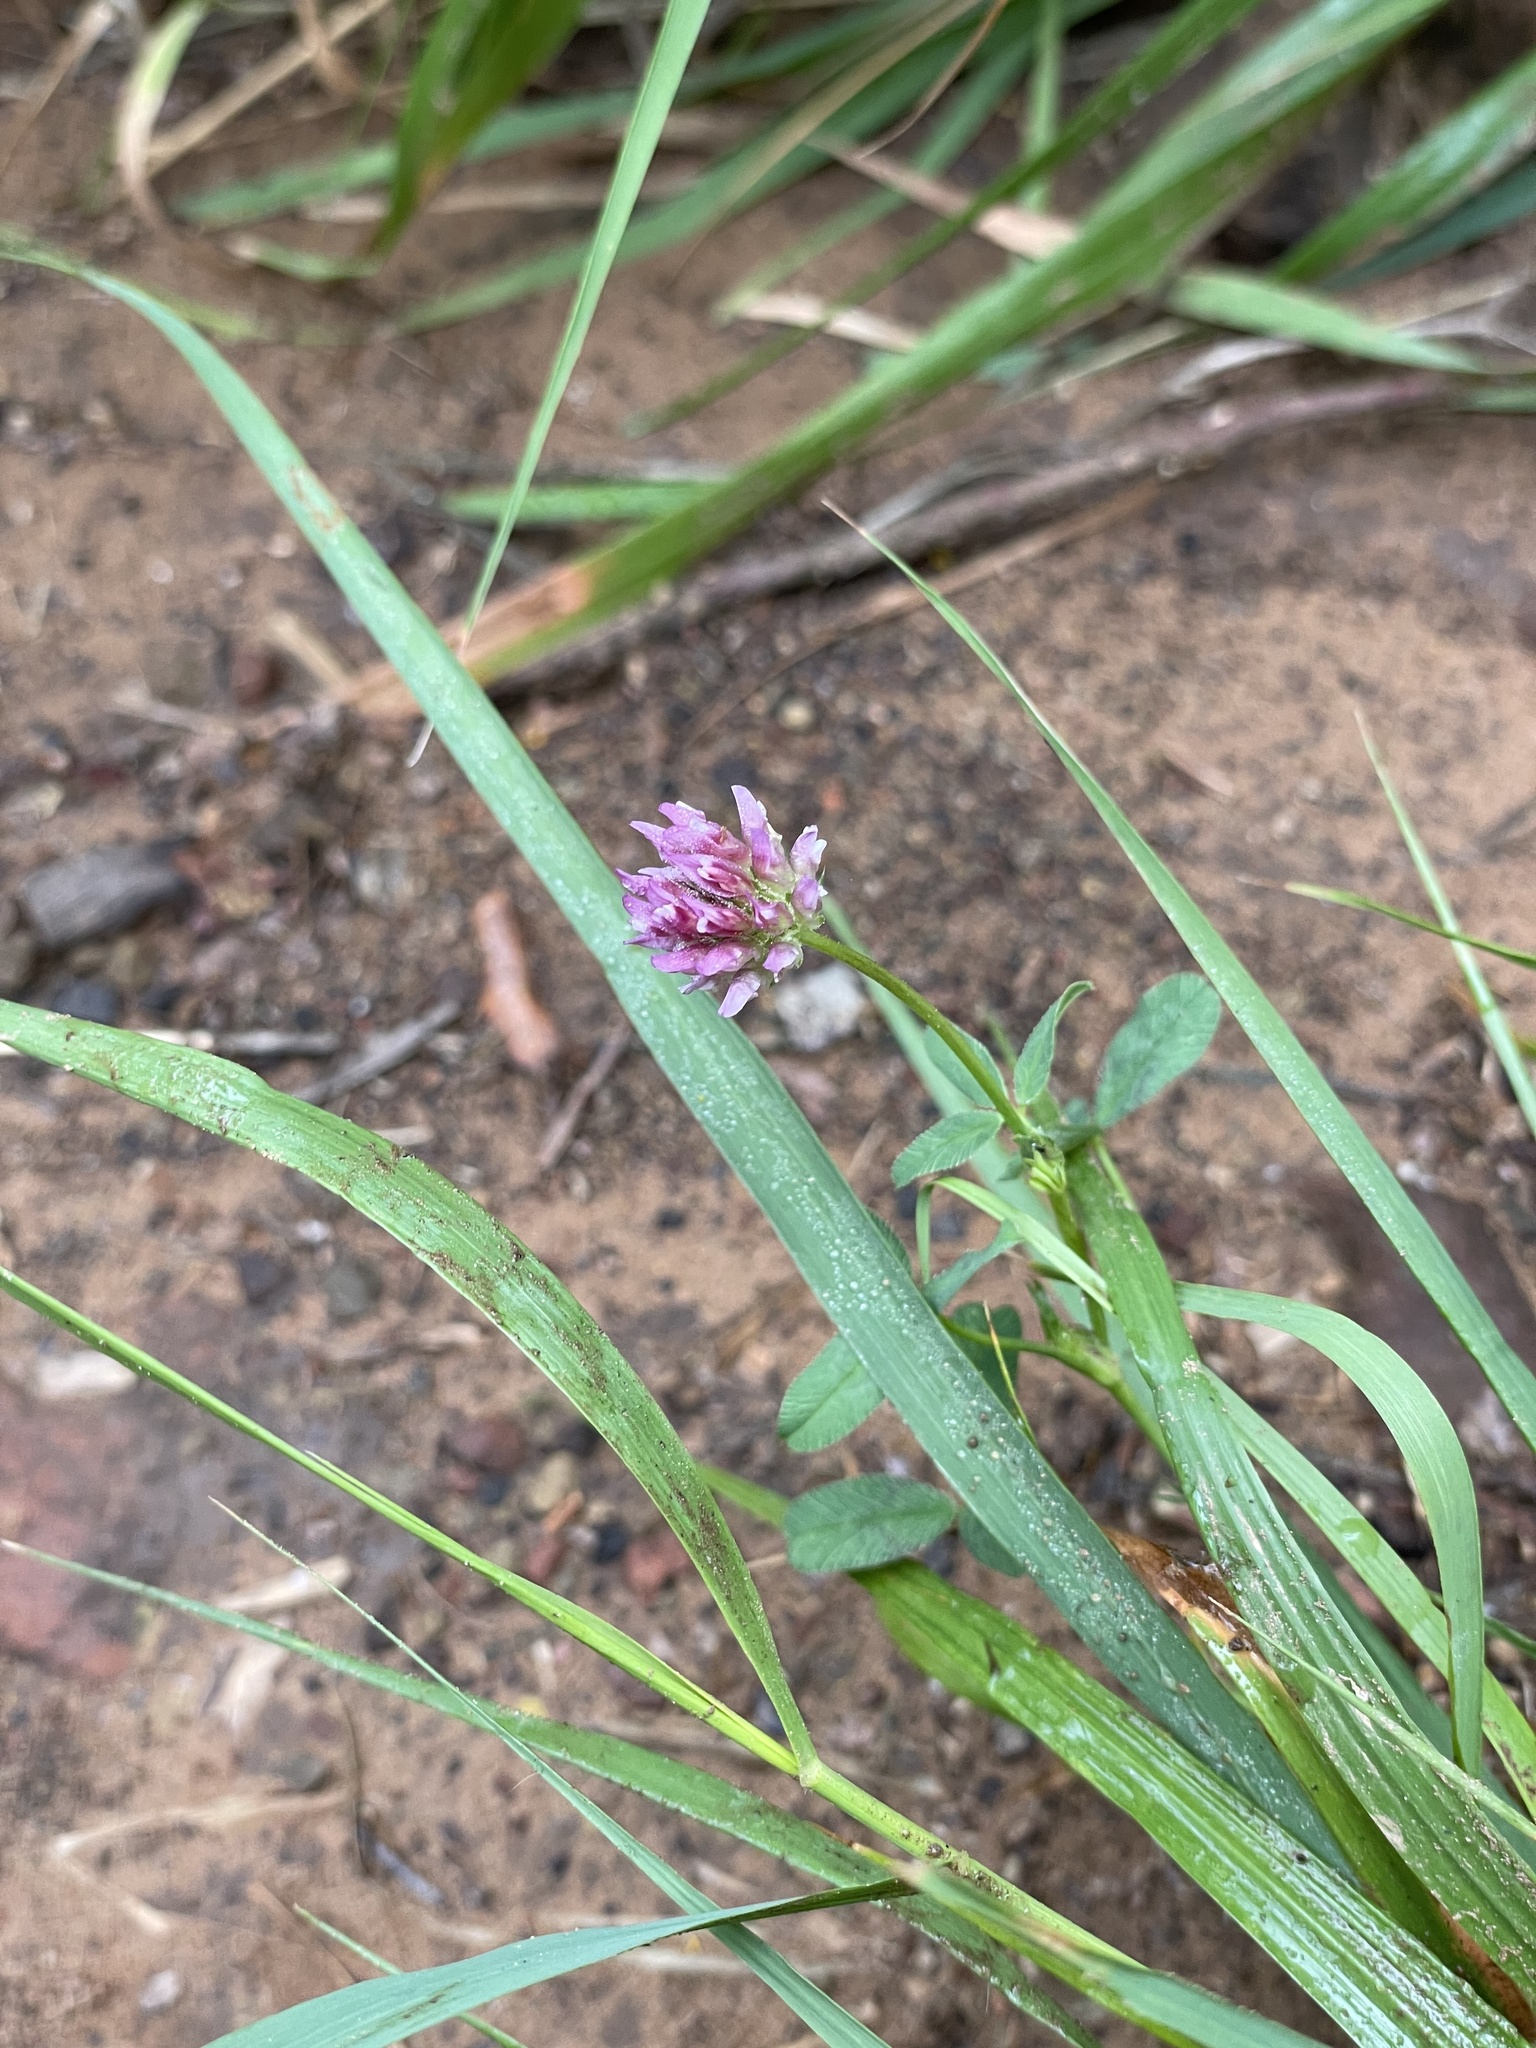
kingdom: Plantae
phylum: Tracheophyta
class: Magnoliopsida
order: Fabales
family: Fabaceae
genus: Trifolium
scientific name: Trifolium ciliolatum
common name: Foothill clover
